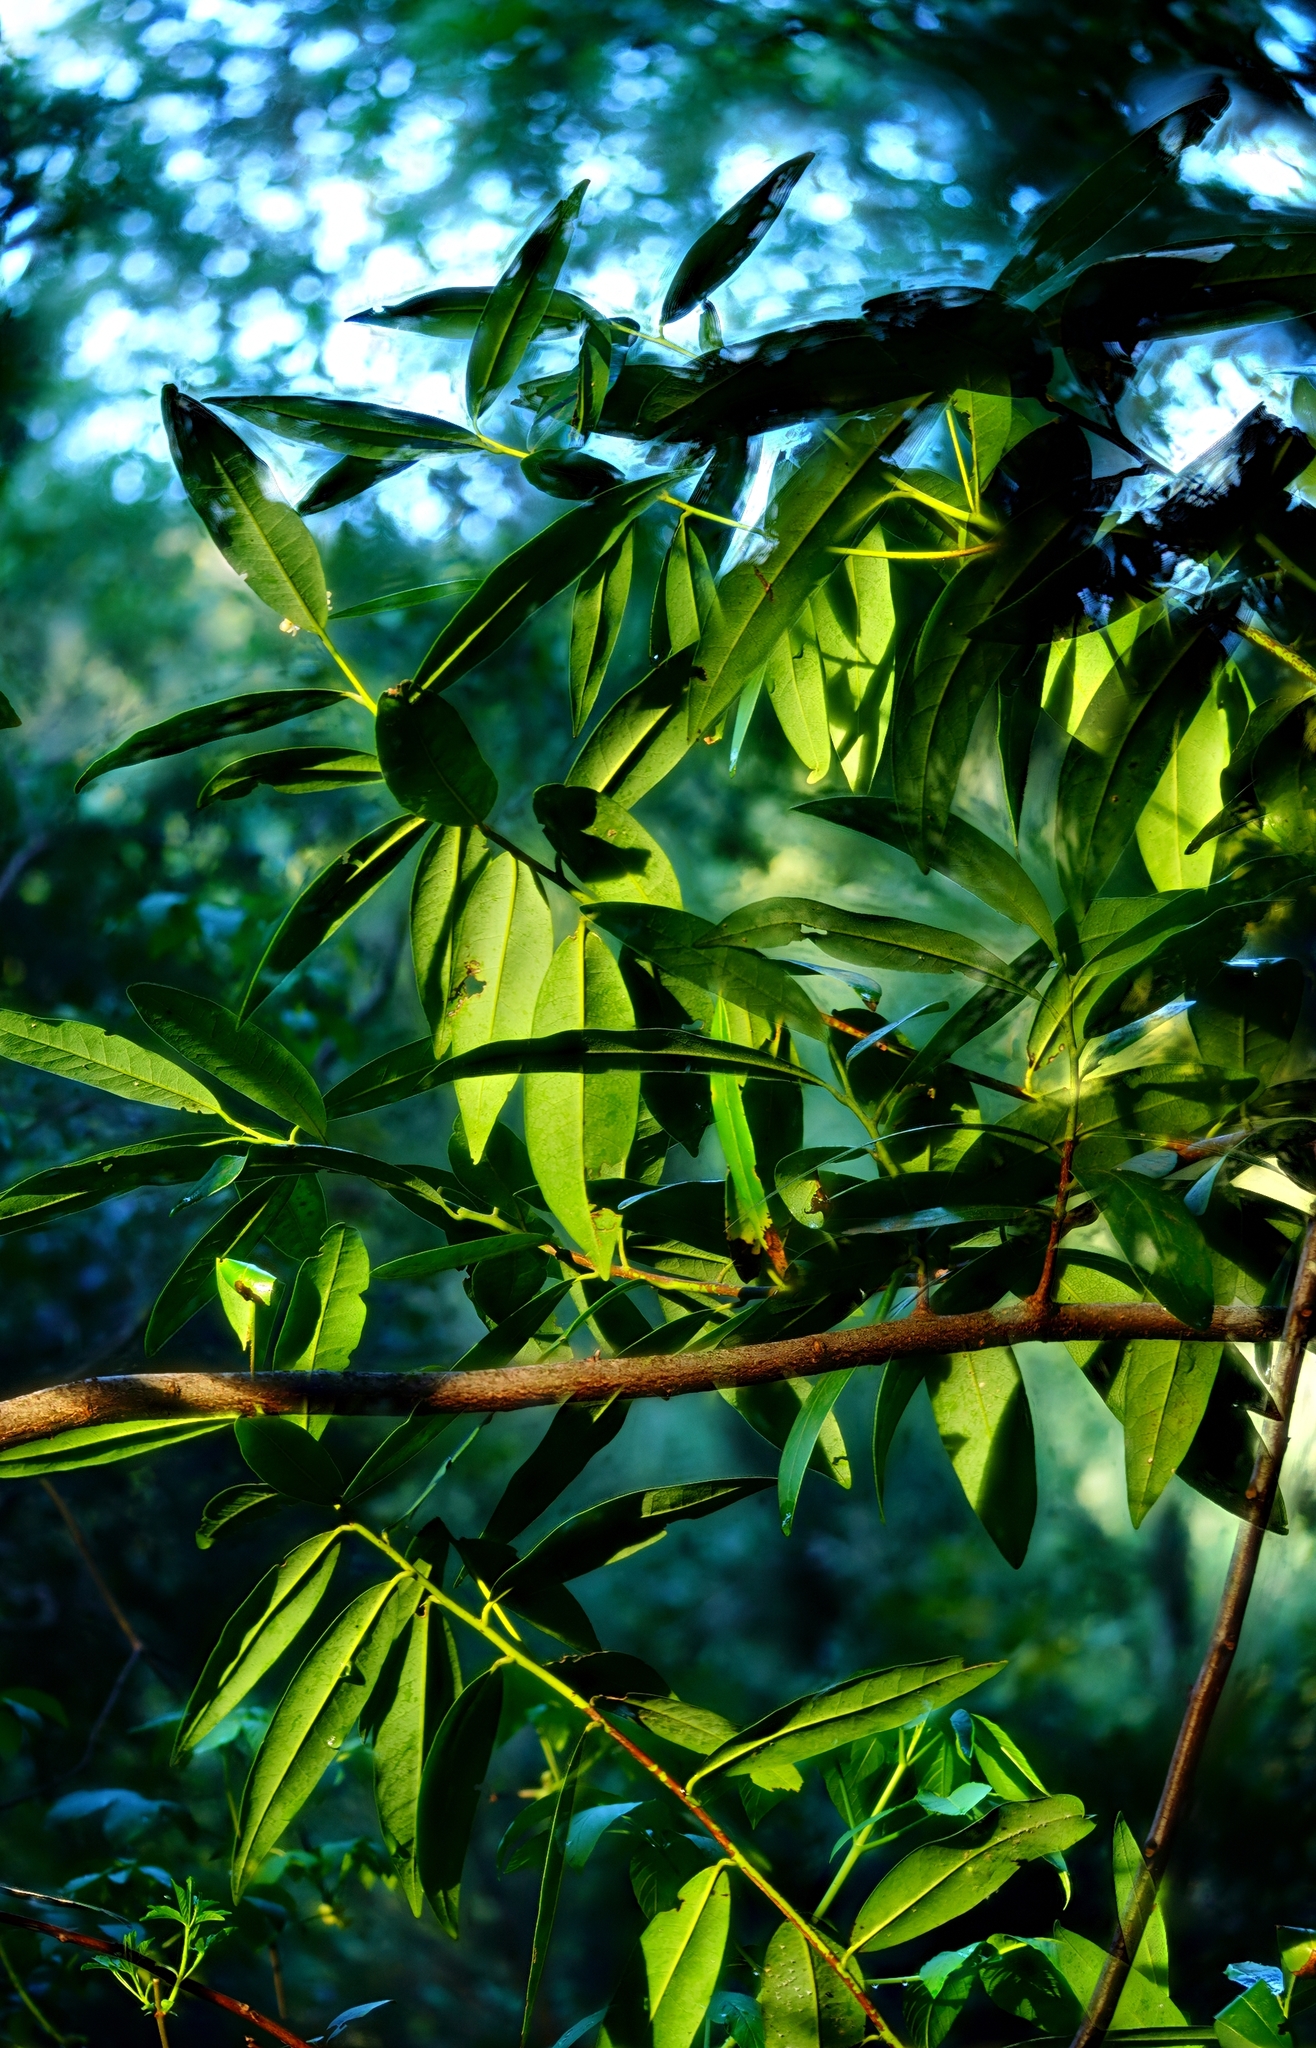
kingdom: Plantae
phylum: Tracheophyta
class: Magnoliopsida
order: Laurales
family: Lauraceae
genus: Umbellularia
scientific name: Umbellularia californica
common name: California bay
